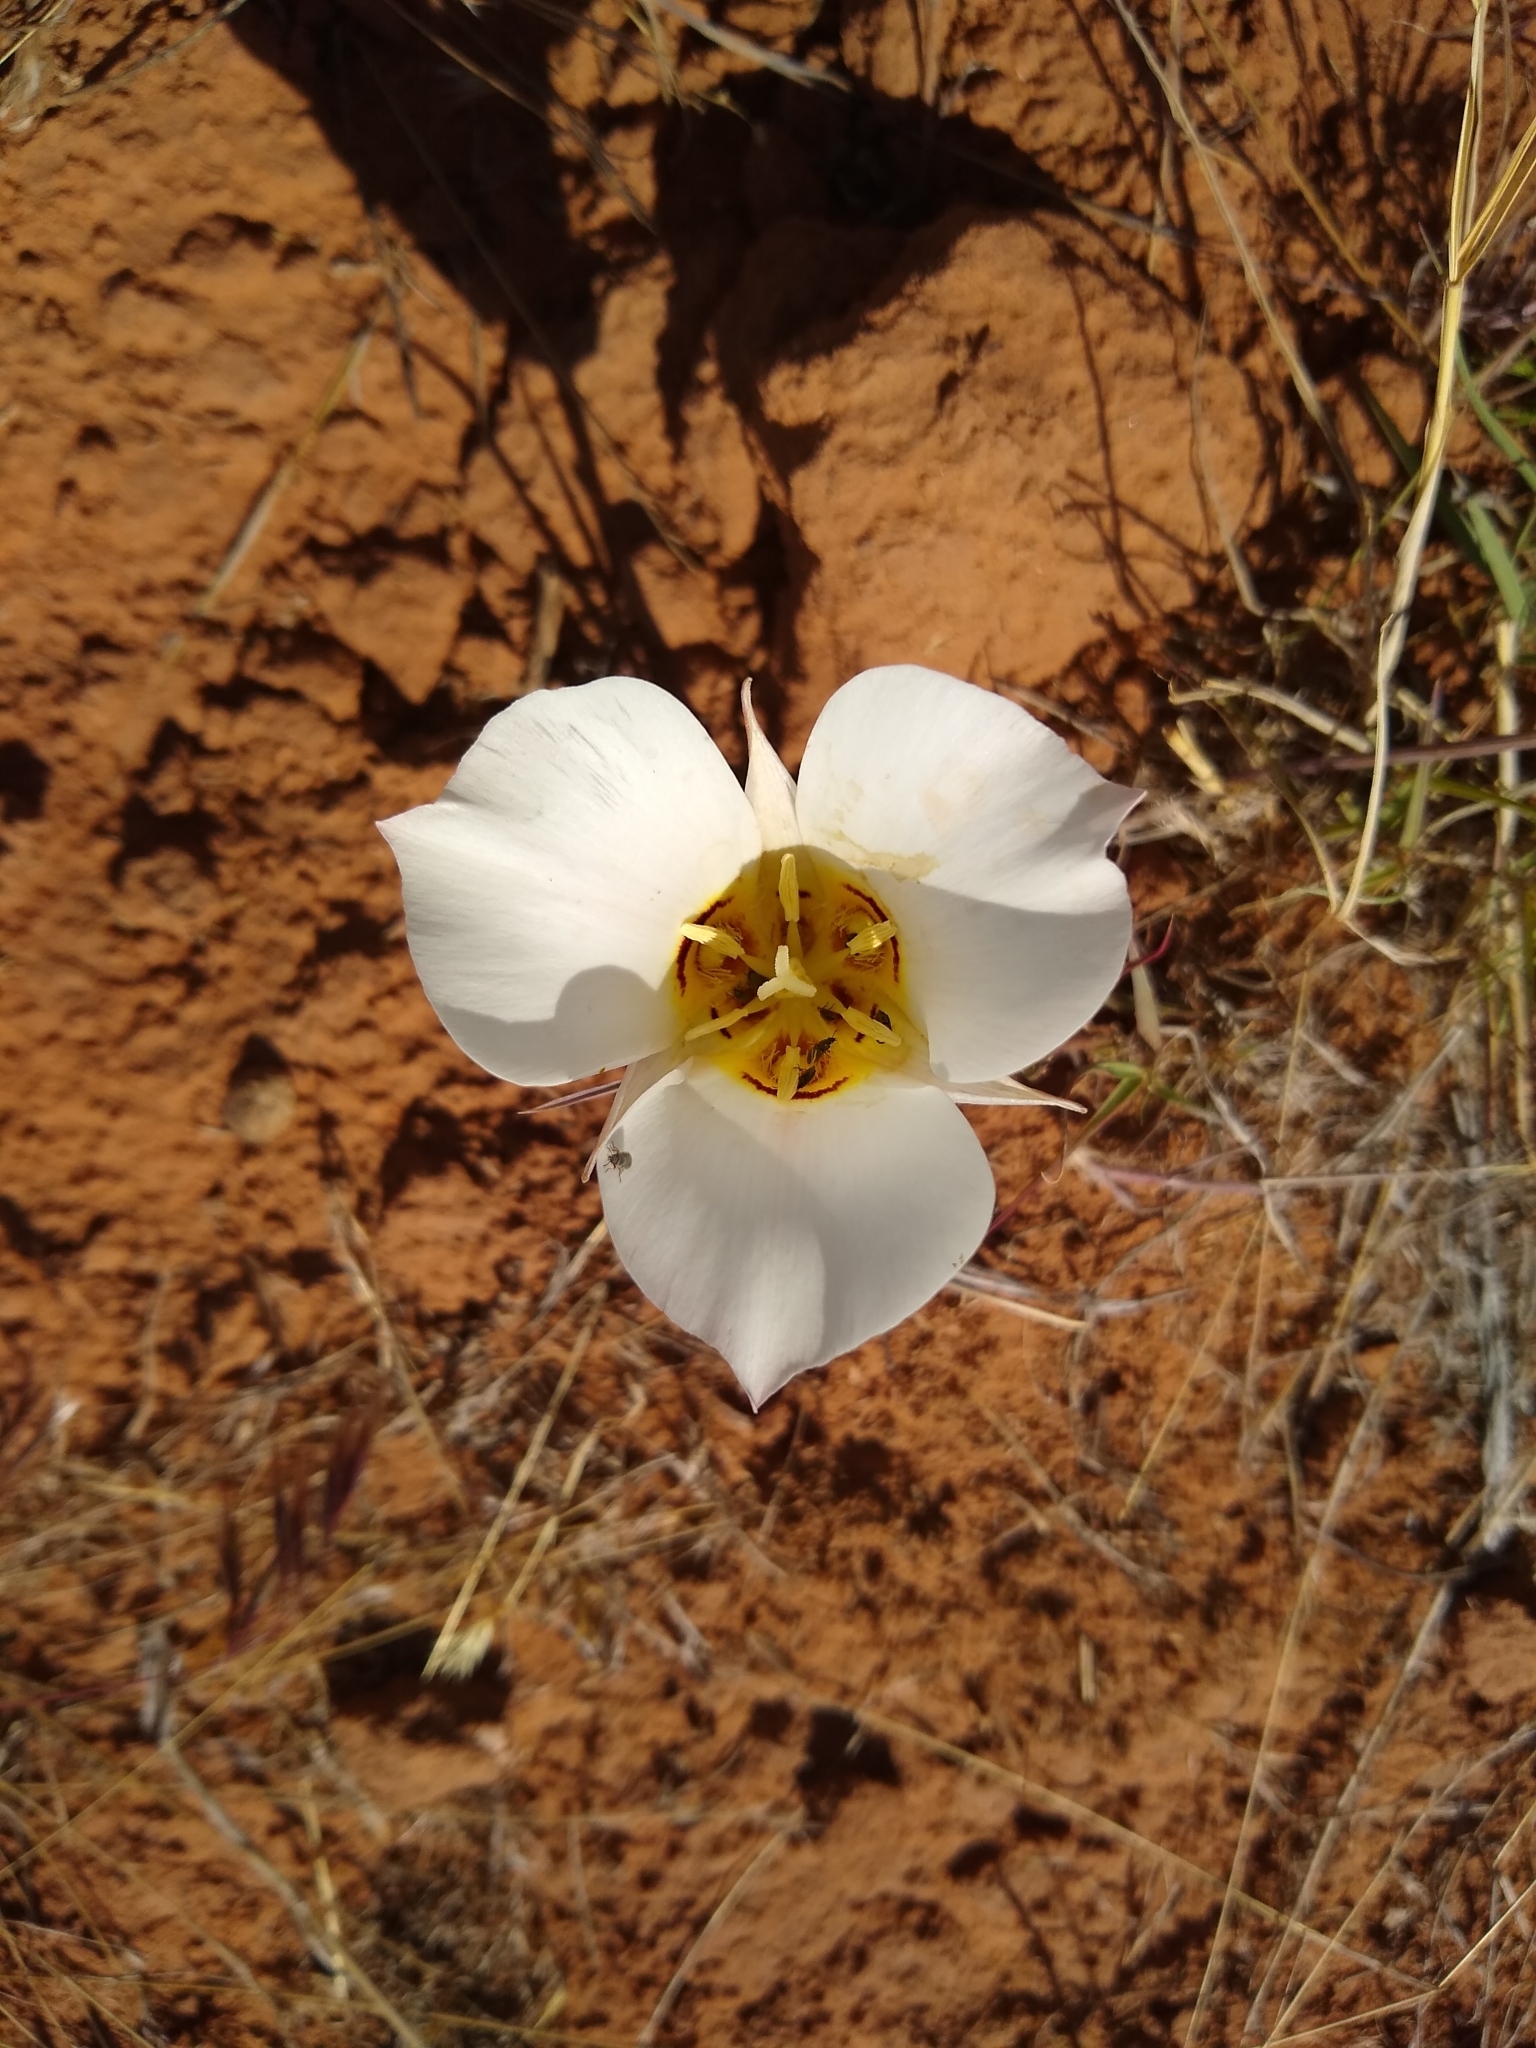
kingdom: Plantae
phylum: Tracheophyta
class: Liliopsida
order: Liliales
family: Liliaceae
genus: Calochortus
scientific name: Calochortus nuttallii
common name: Sego-lily
